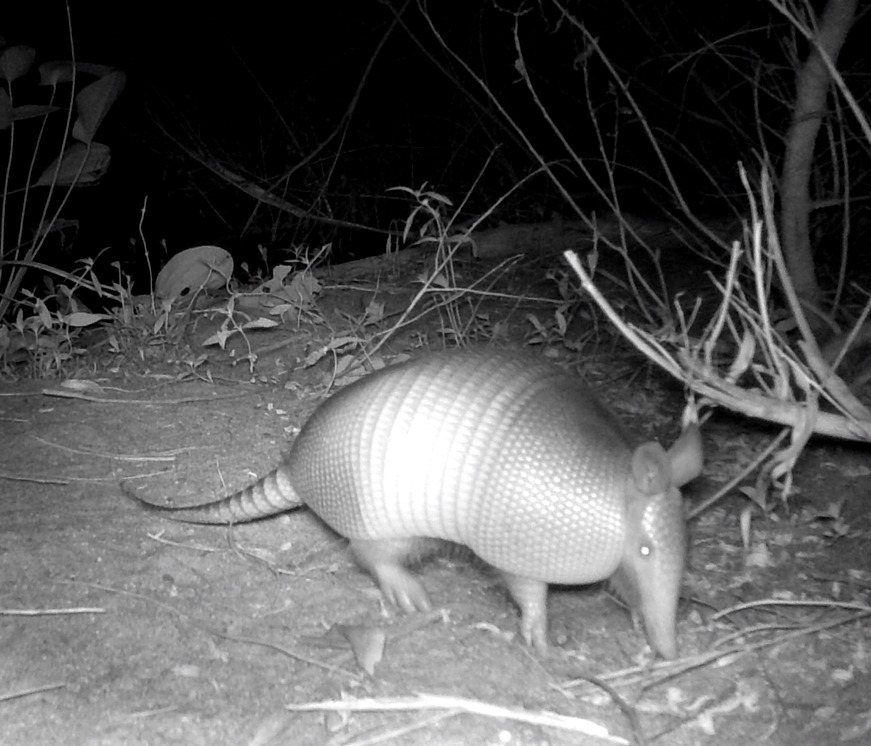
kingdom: Animalia
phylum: Chordata
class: Mammalia
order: Cingulata
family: Dasypodidae
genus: Dasypus
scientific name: Dasypus novemcinctus
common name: Nine-banded armadillo
